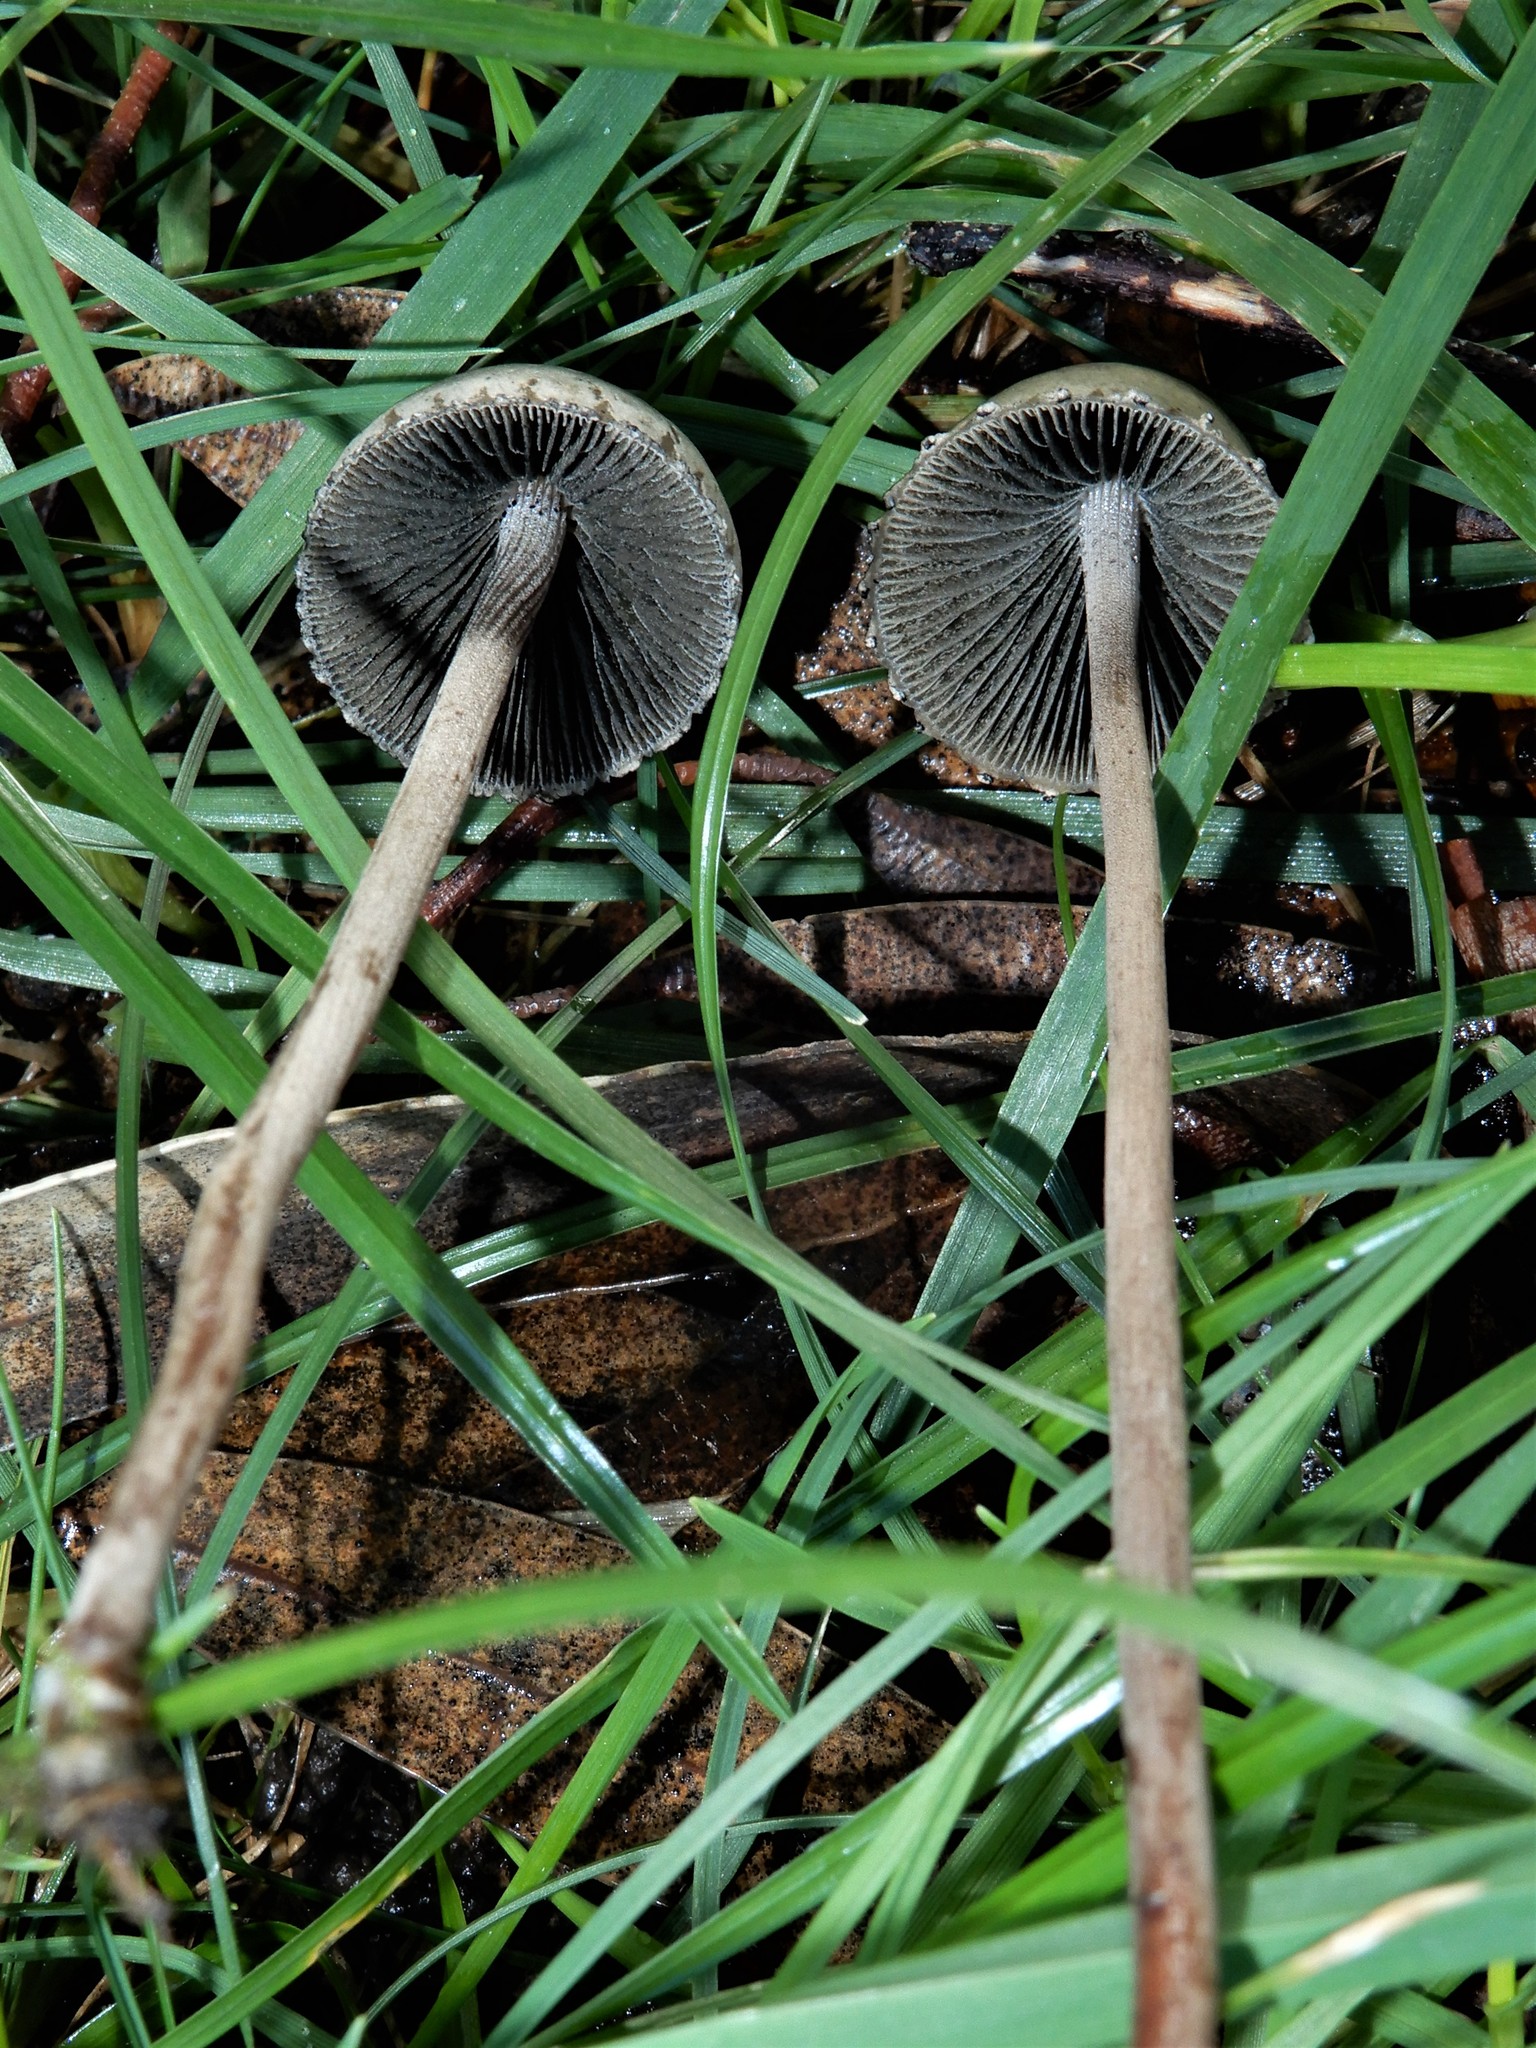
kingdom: Fungi
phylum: Basidiomycota
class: Agaricomycetes
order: Agaricales
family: Bolbitiaceae
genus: Panaeolus
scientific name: Panaeolus papilionaceus
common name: Petticoat mottlegill
